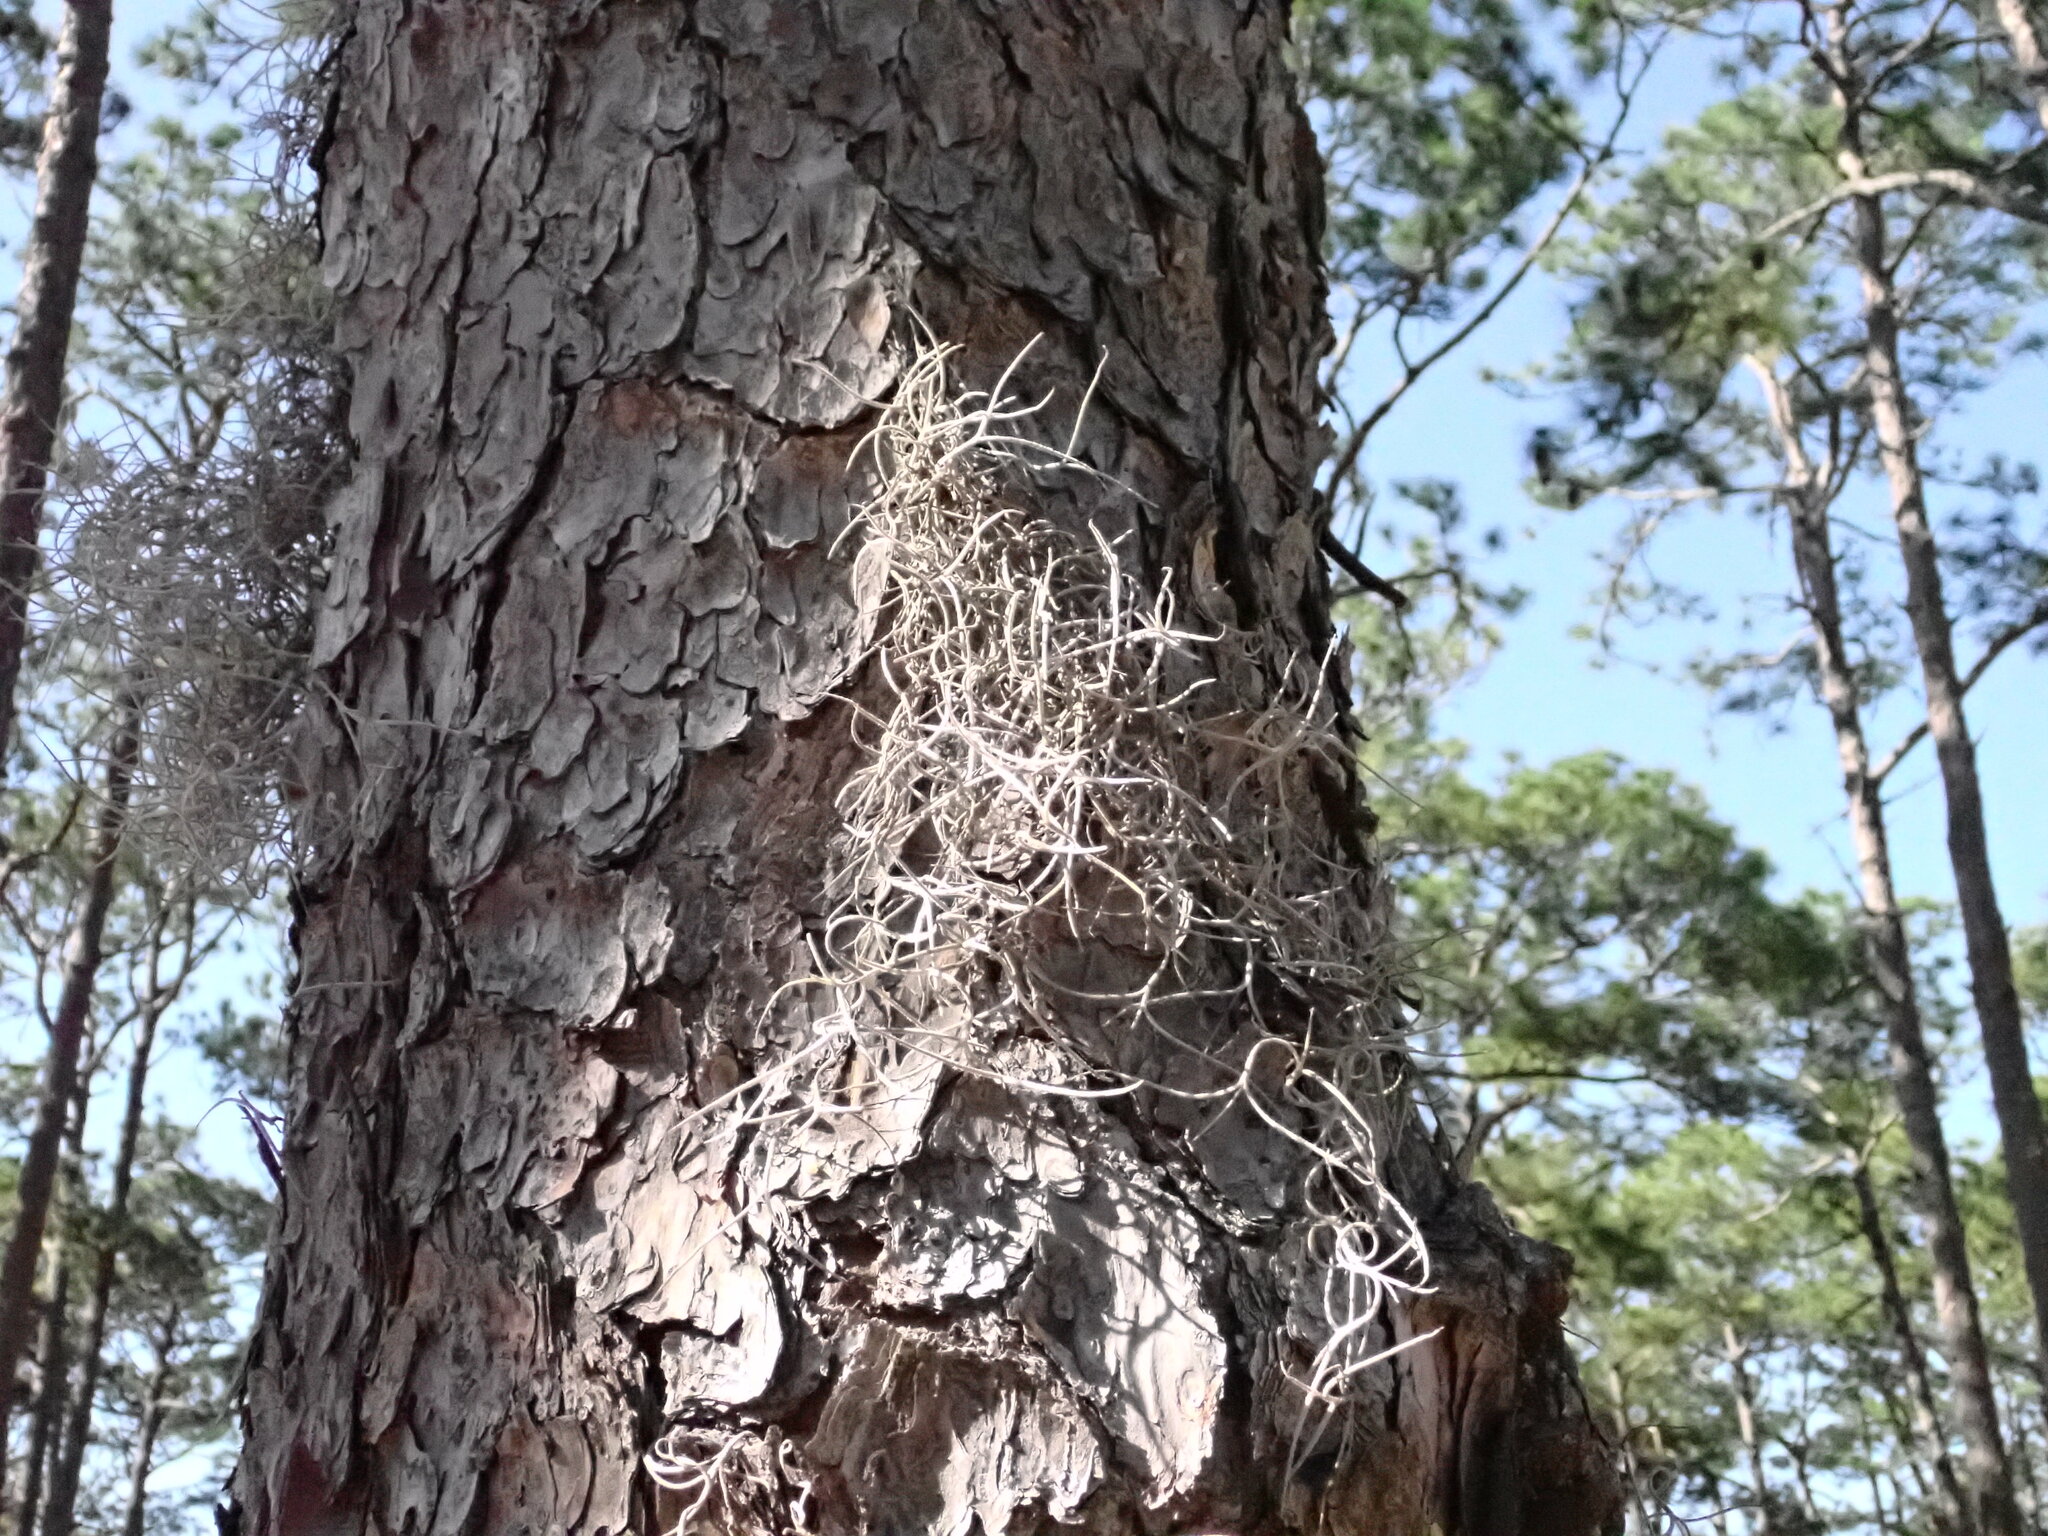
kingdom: Plantae
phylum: Tracheophyta
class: Liliopsida
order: Poales
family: Bromeliaceae
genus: Tillandsia
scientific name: Tillandsia usneoides
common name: Spanish moss
